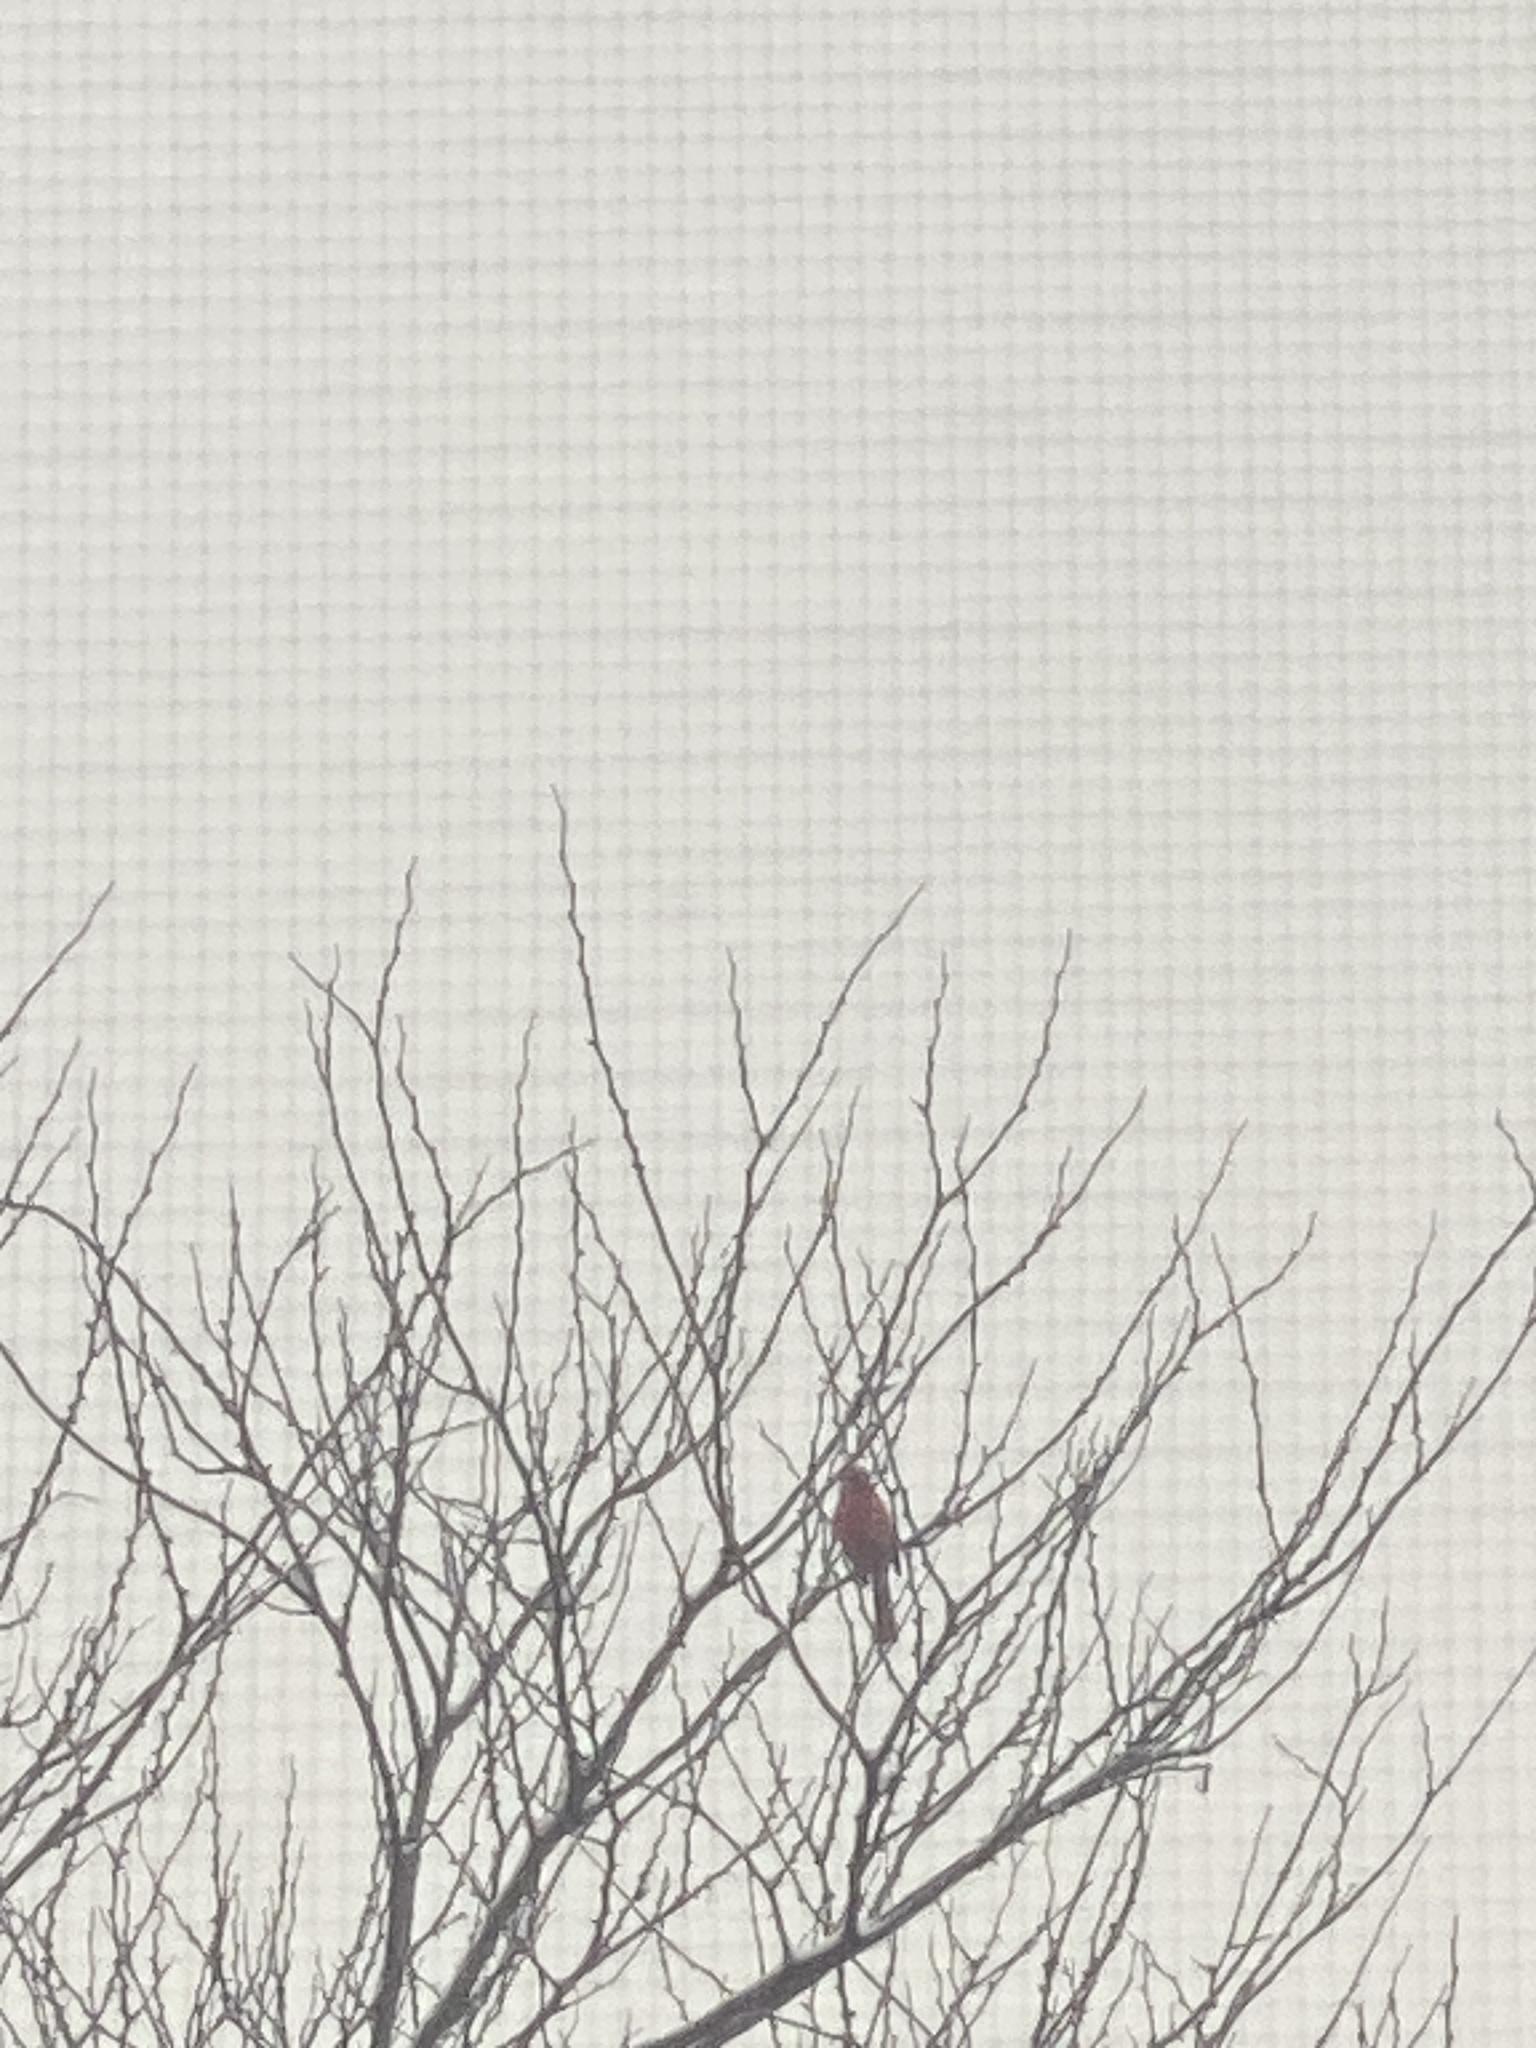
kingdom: Animalia
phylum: Chordata
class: Aves
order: Passeriformes
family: Cardinalidae
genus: Cardinalis
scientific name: Cardinalis cardinalis
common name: Northern cardinal
